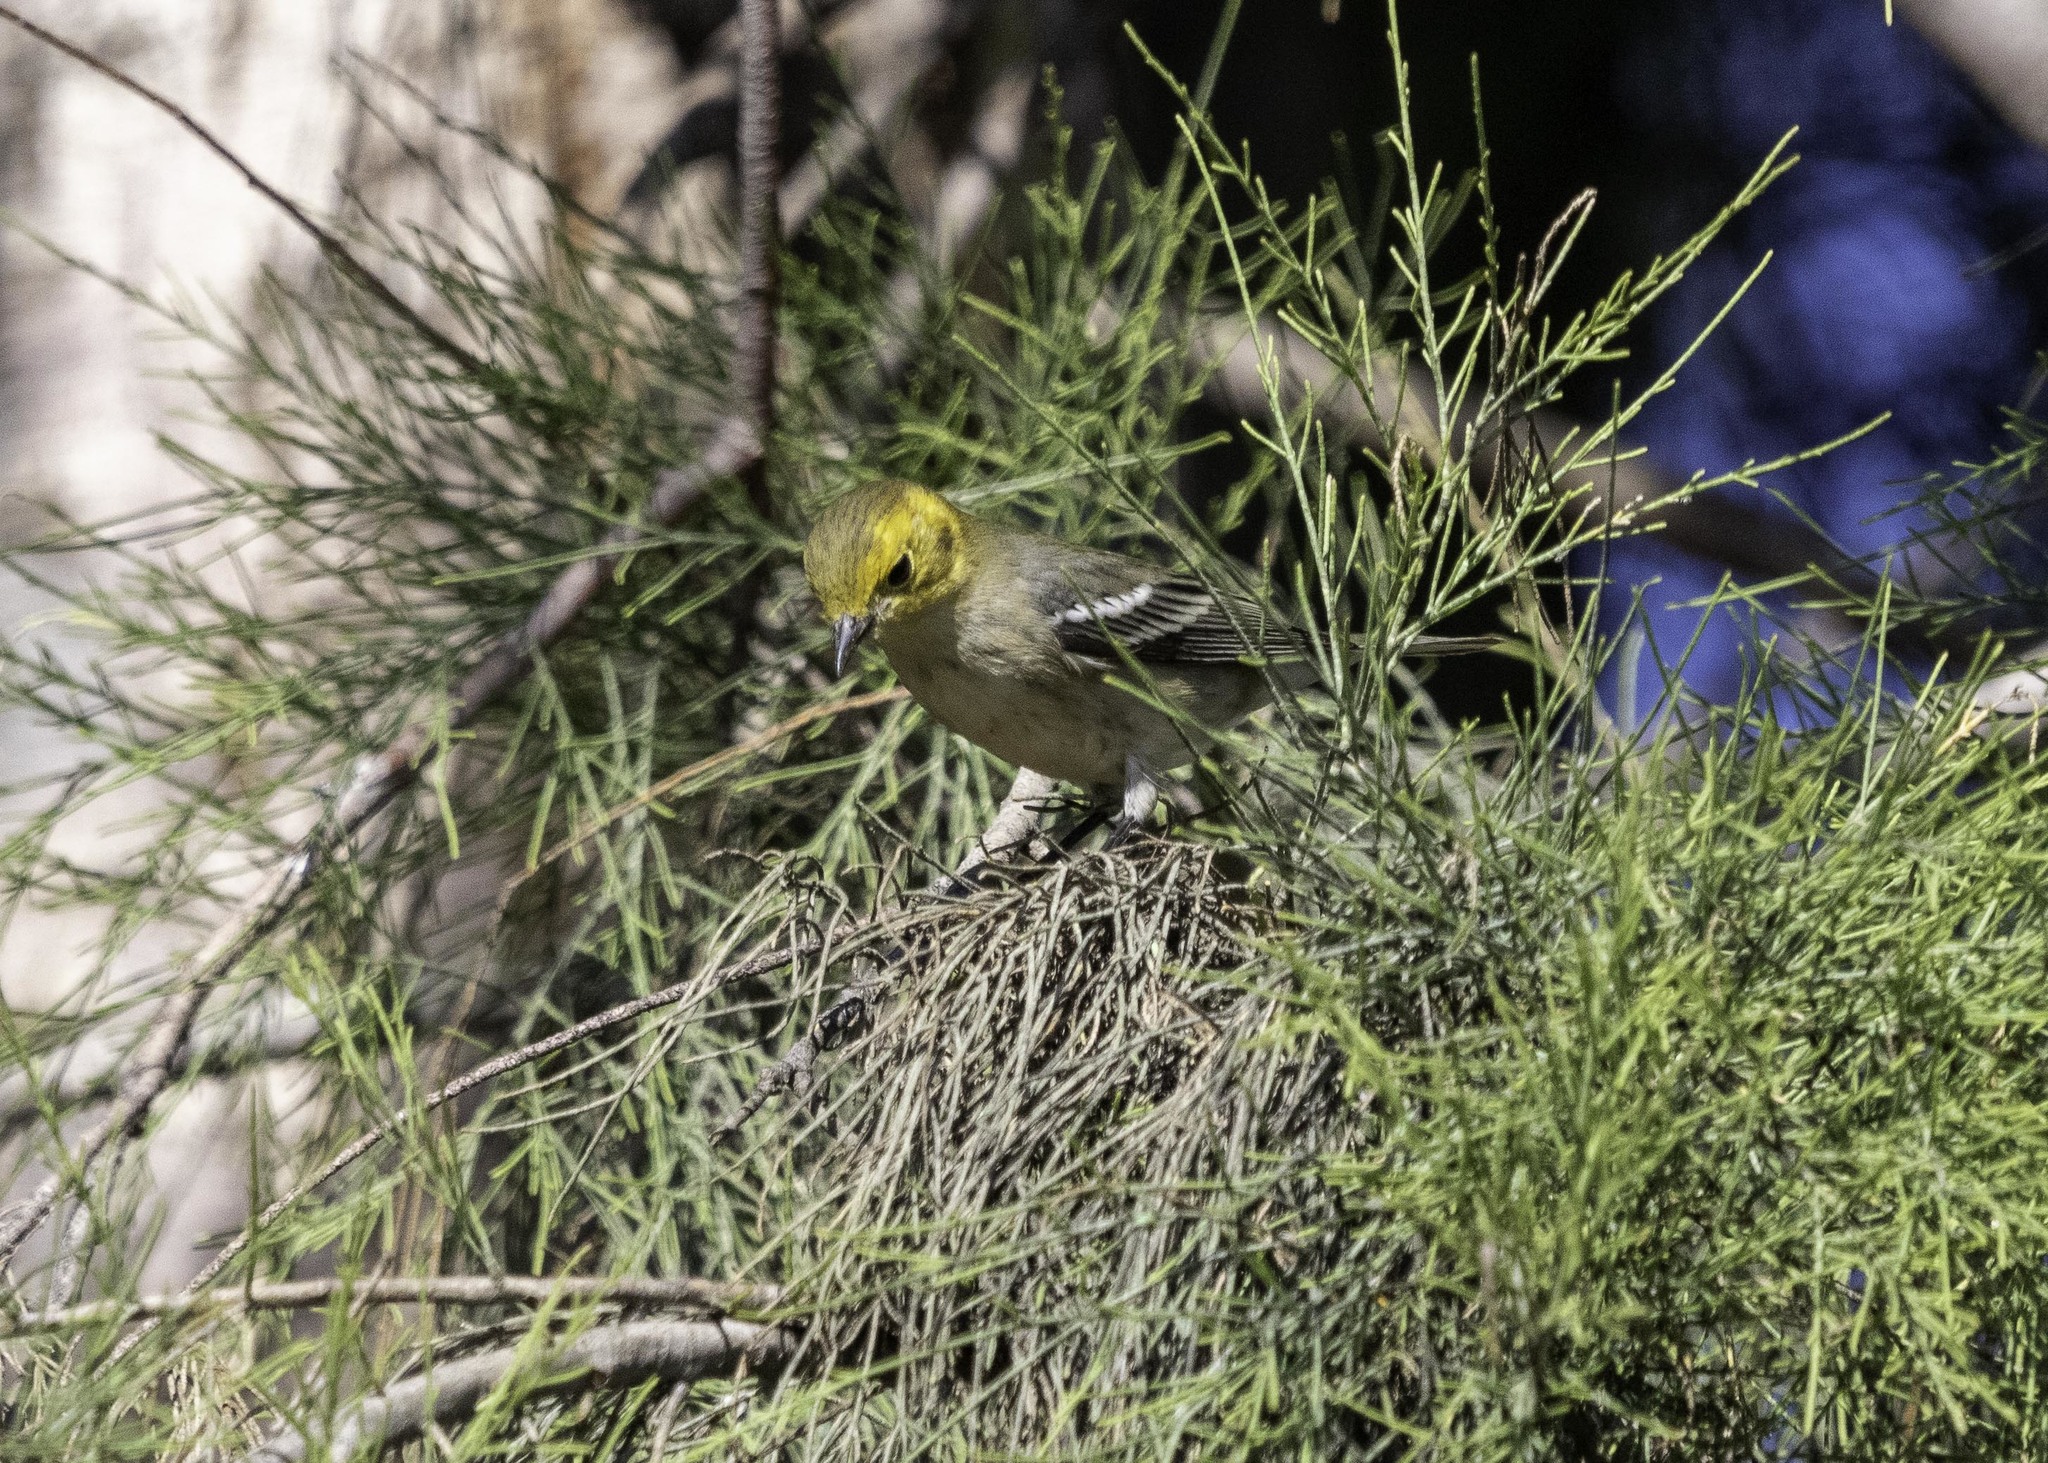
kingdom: Animalia
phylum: Chordata
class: Aves
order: Passeriformes
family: Parulidae
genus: Setophaga
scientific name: Setophaga occidentalis
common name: Hermit warbler
